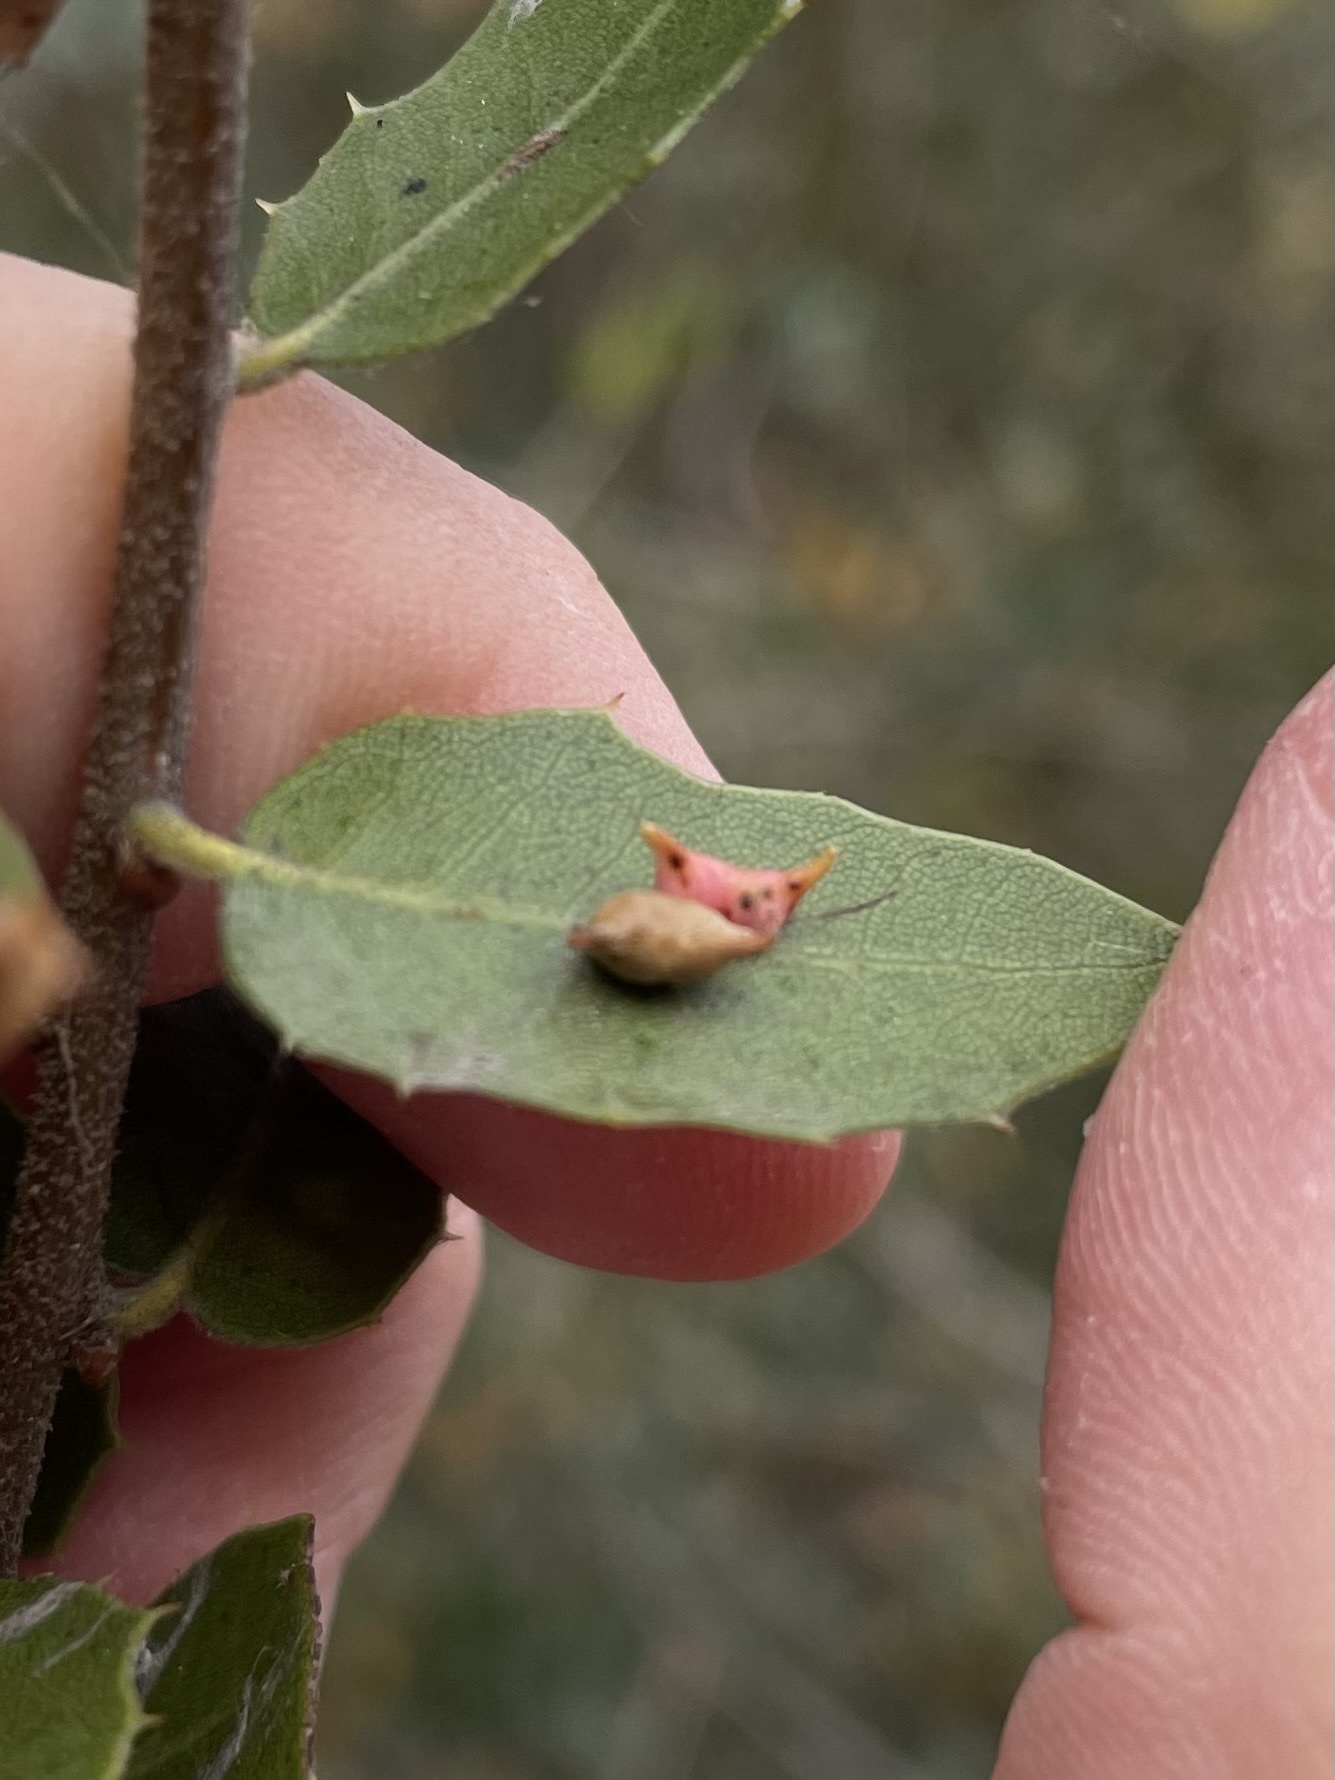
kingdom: Animalia
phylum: Arthropoda
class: Insecta
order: Hymenoptera
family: Cynipidae
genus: Dryocosmus
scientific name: Dryocosmus
